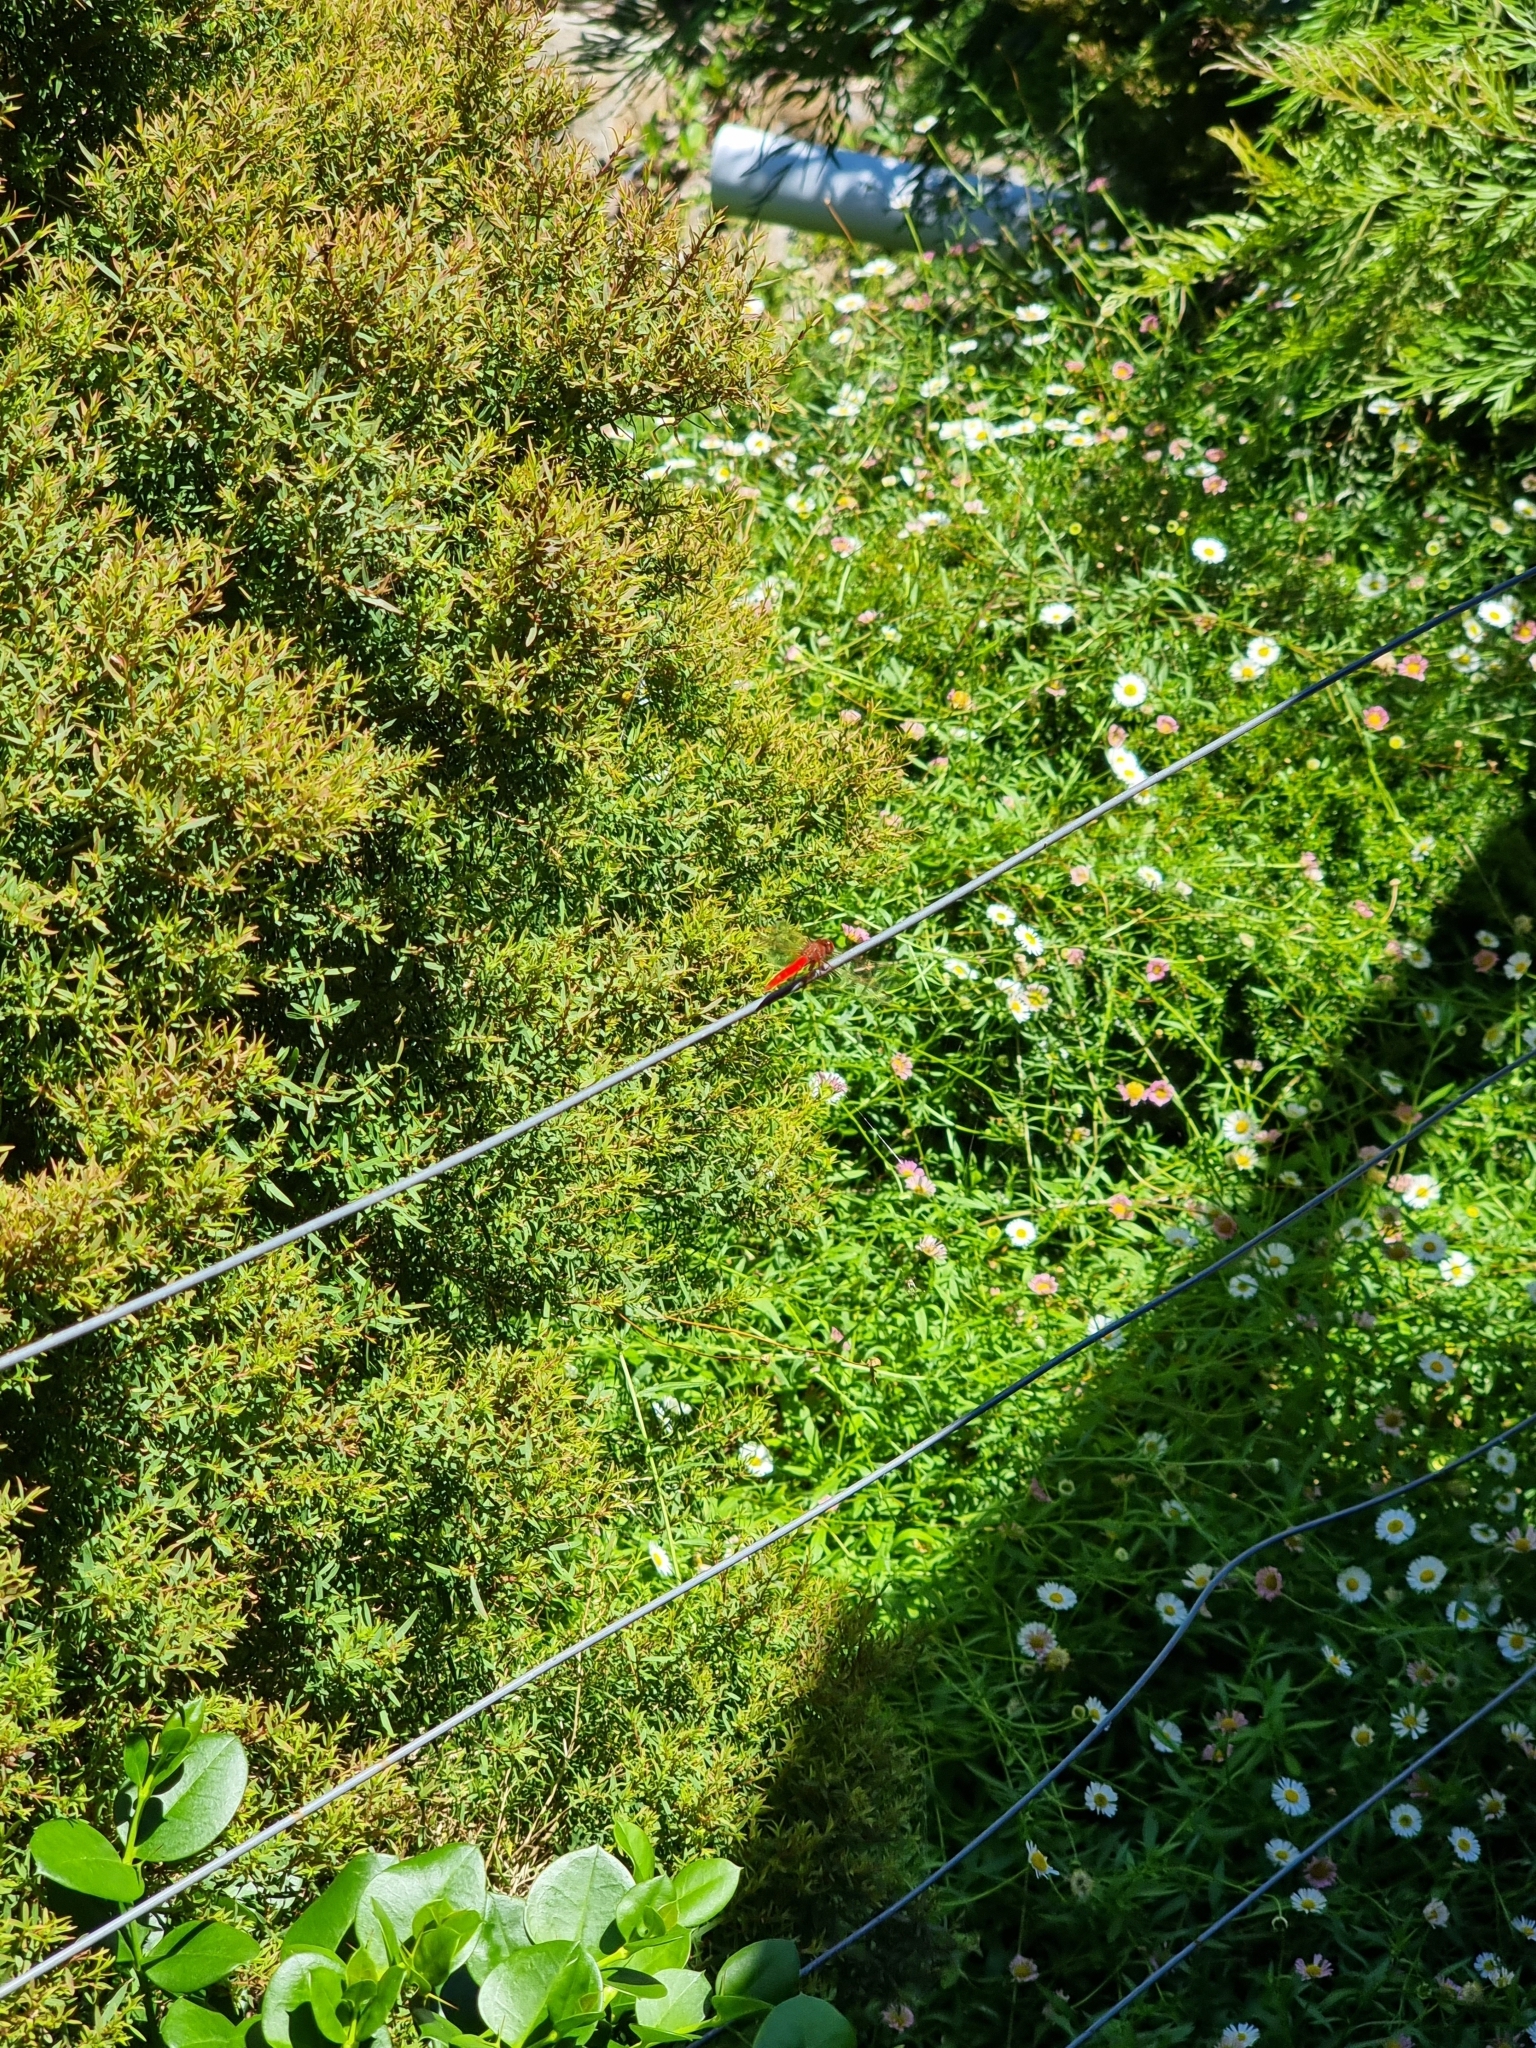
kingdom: Animalia
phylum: Arthropoda
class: Insecta
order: Odonata
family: Libellulidae
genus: Diplacodes
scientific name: Diplacodes haematodes
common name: Scarlet percher
